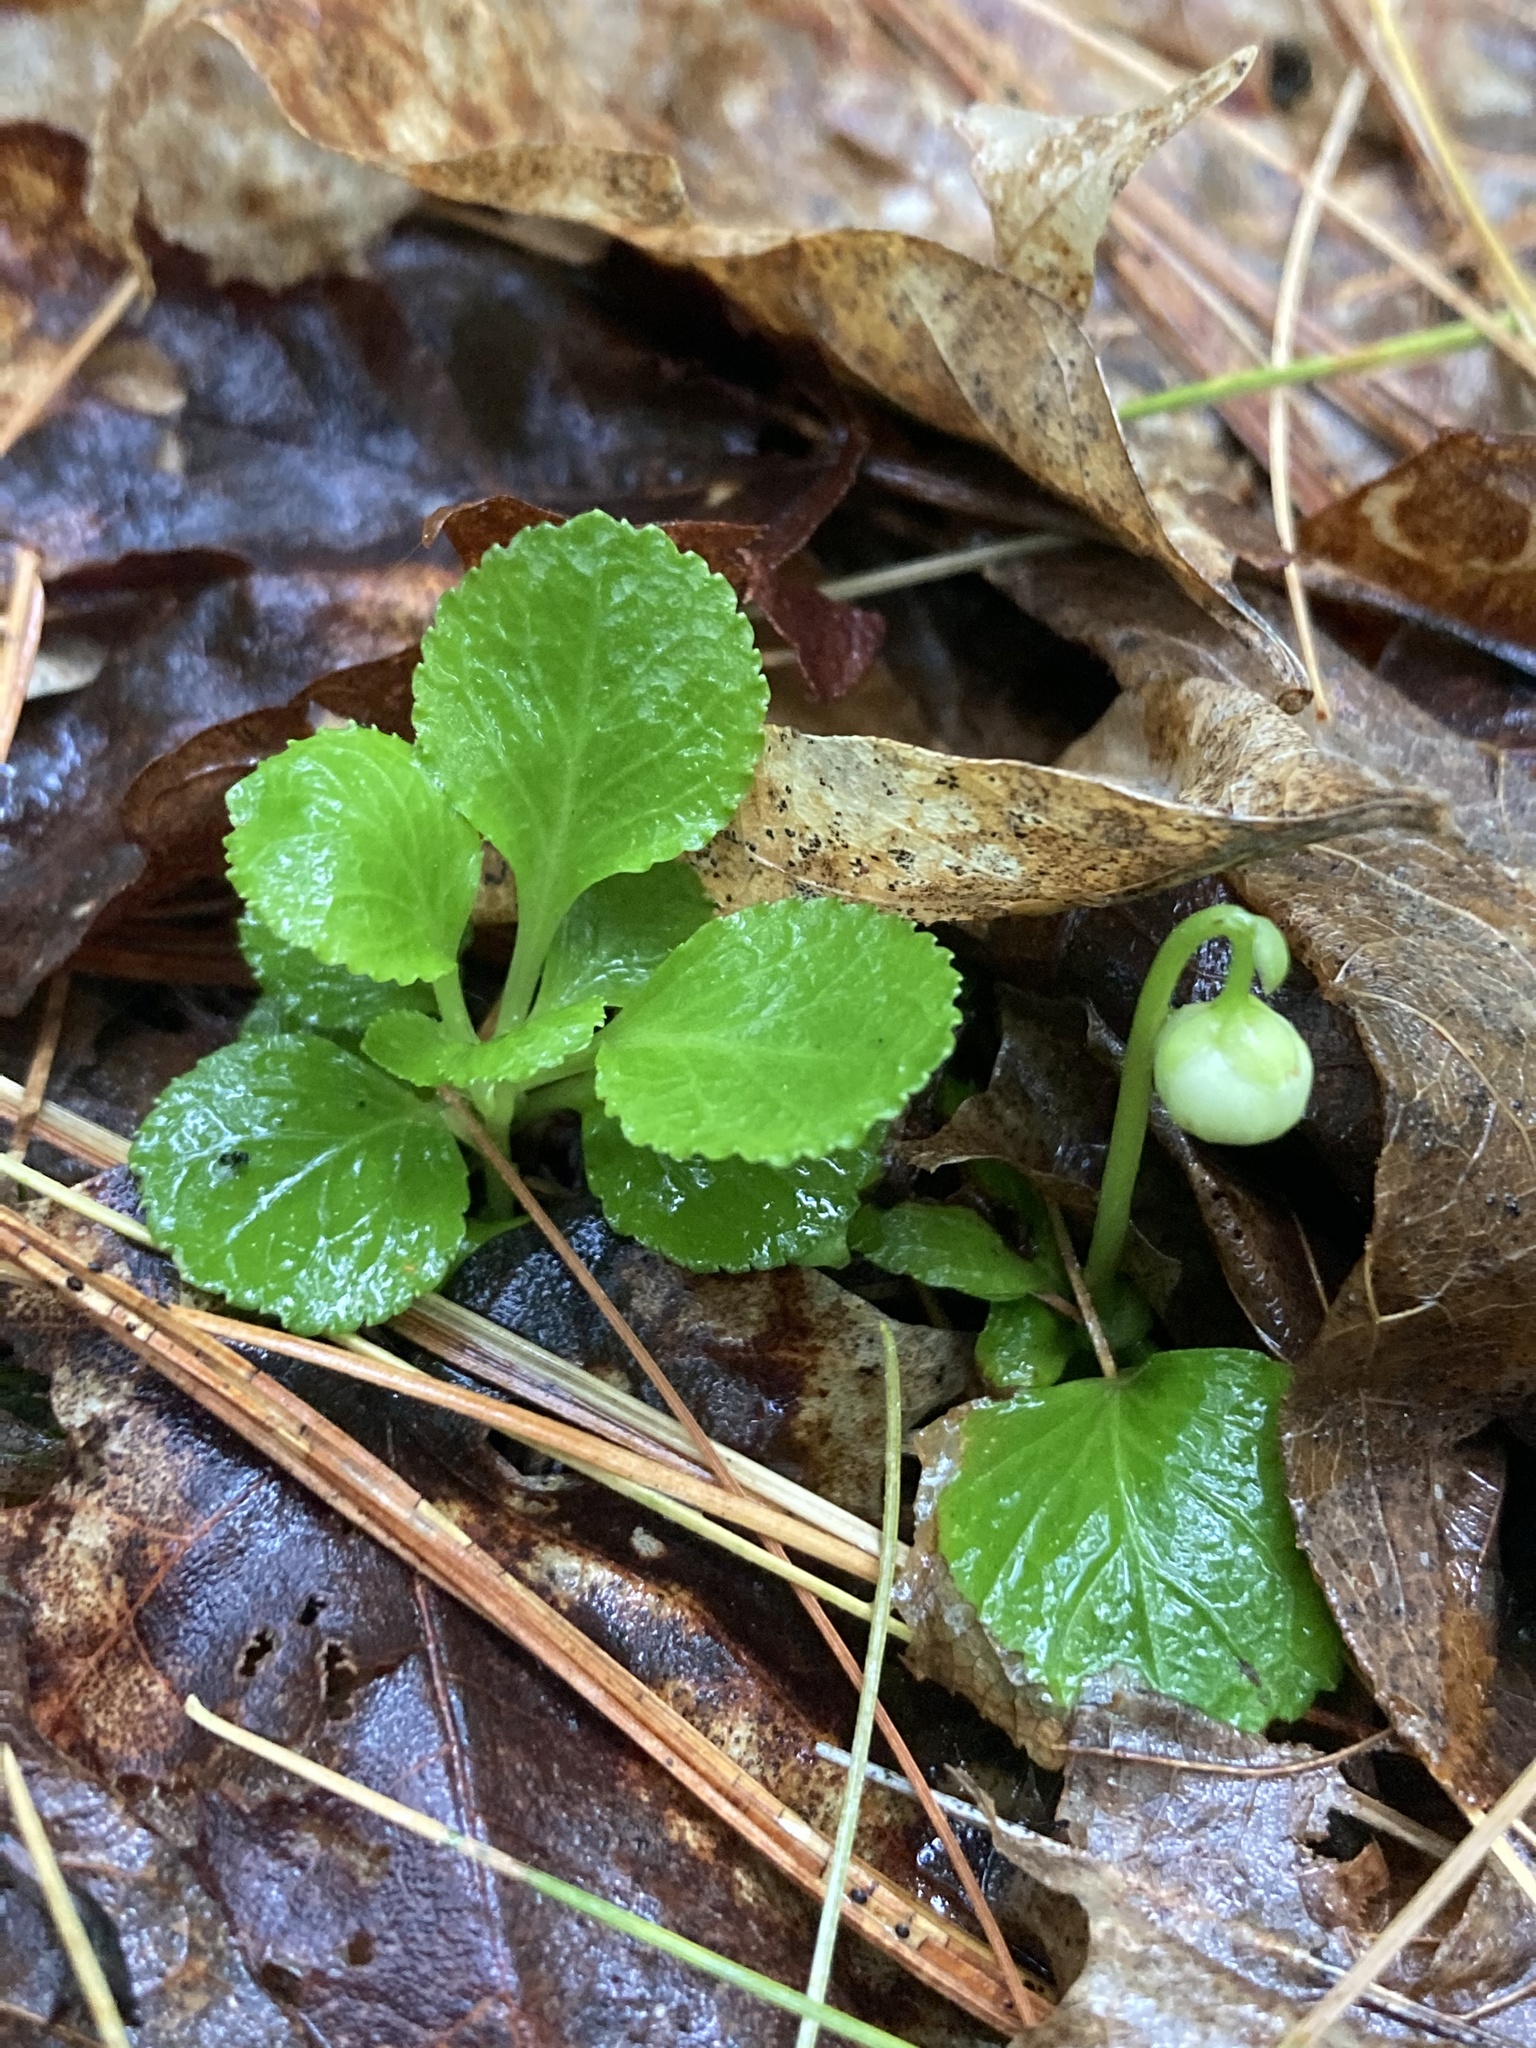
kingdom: Plantae
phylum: Tracheophyta
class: Magnoliopsida
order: Ericales
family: Ericaceae
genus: Moneses
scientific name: Moneses uniflora
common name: One-flowered wintergreen
